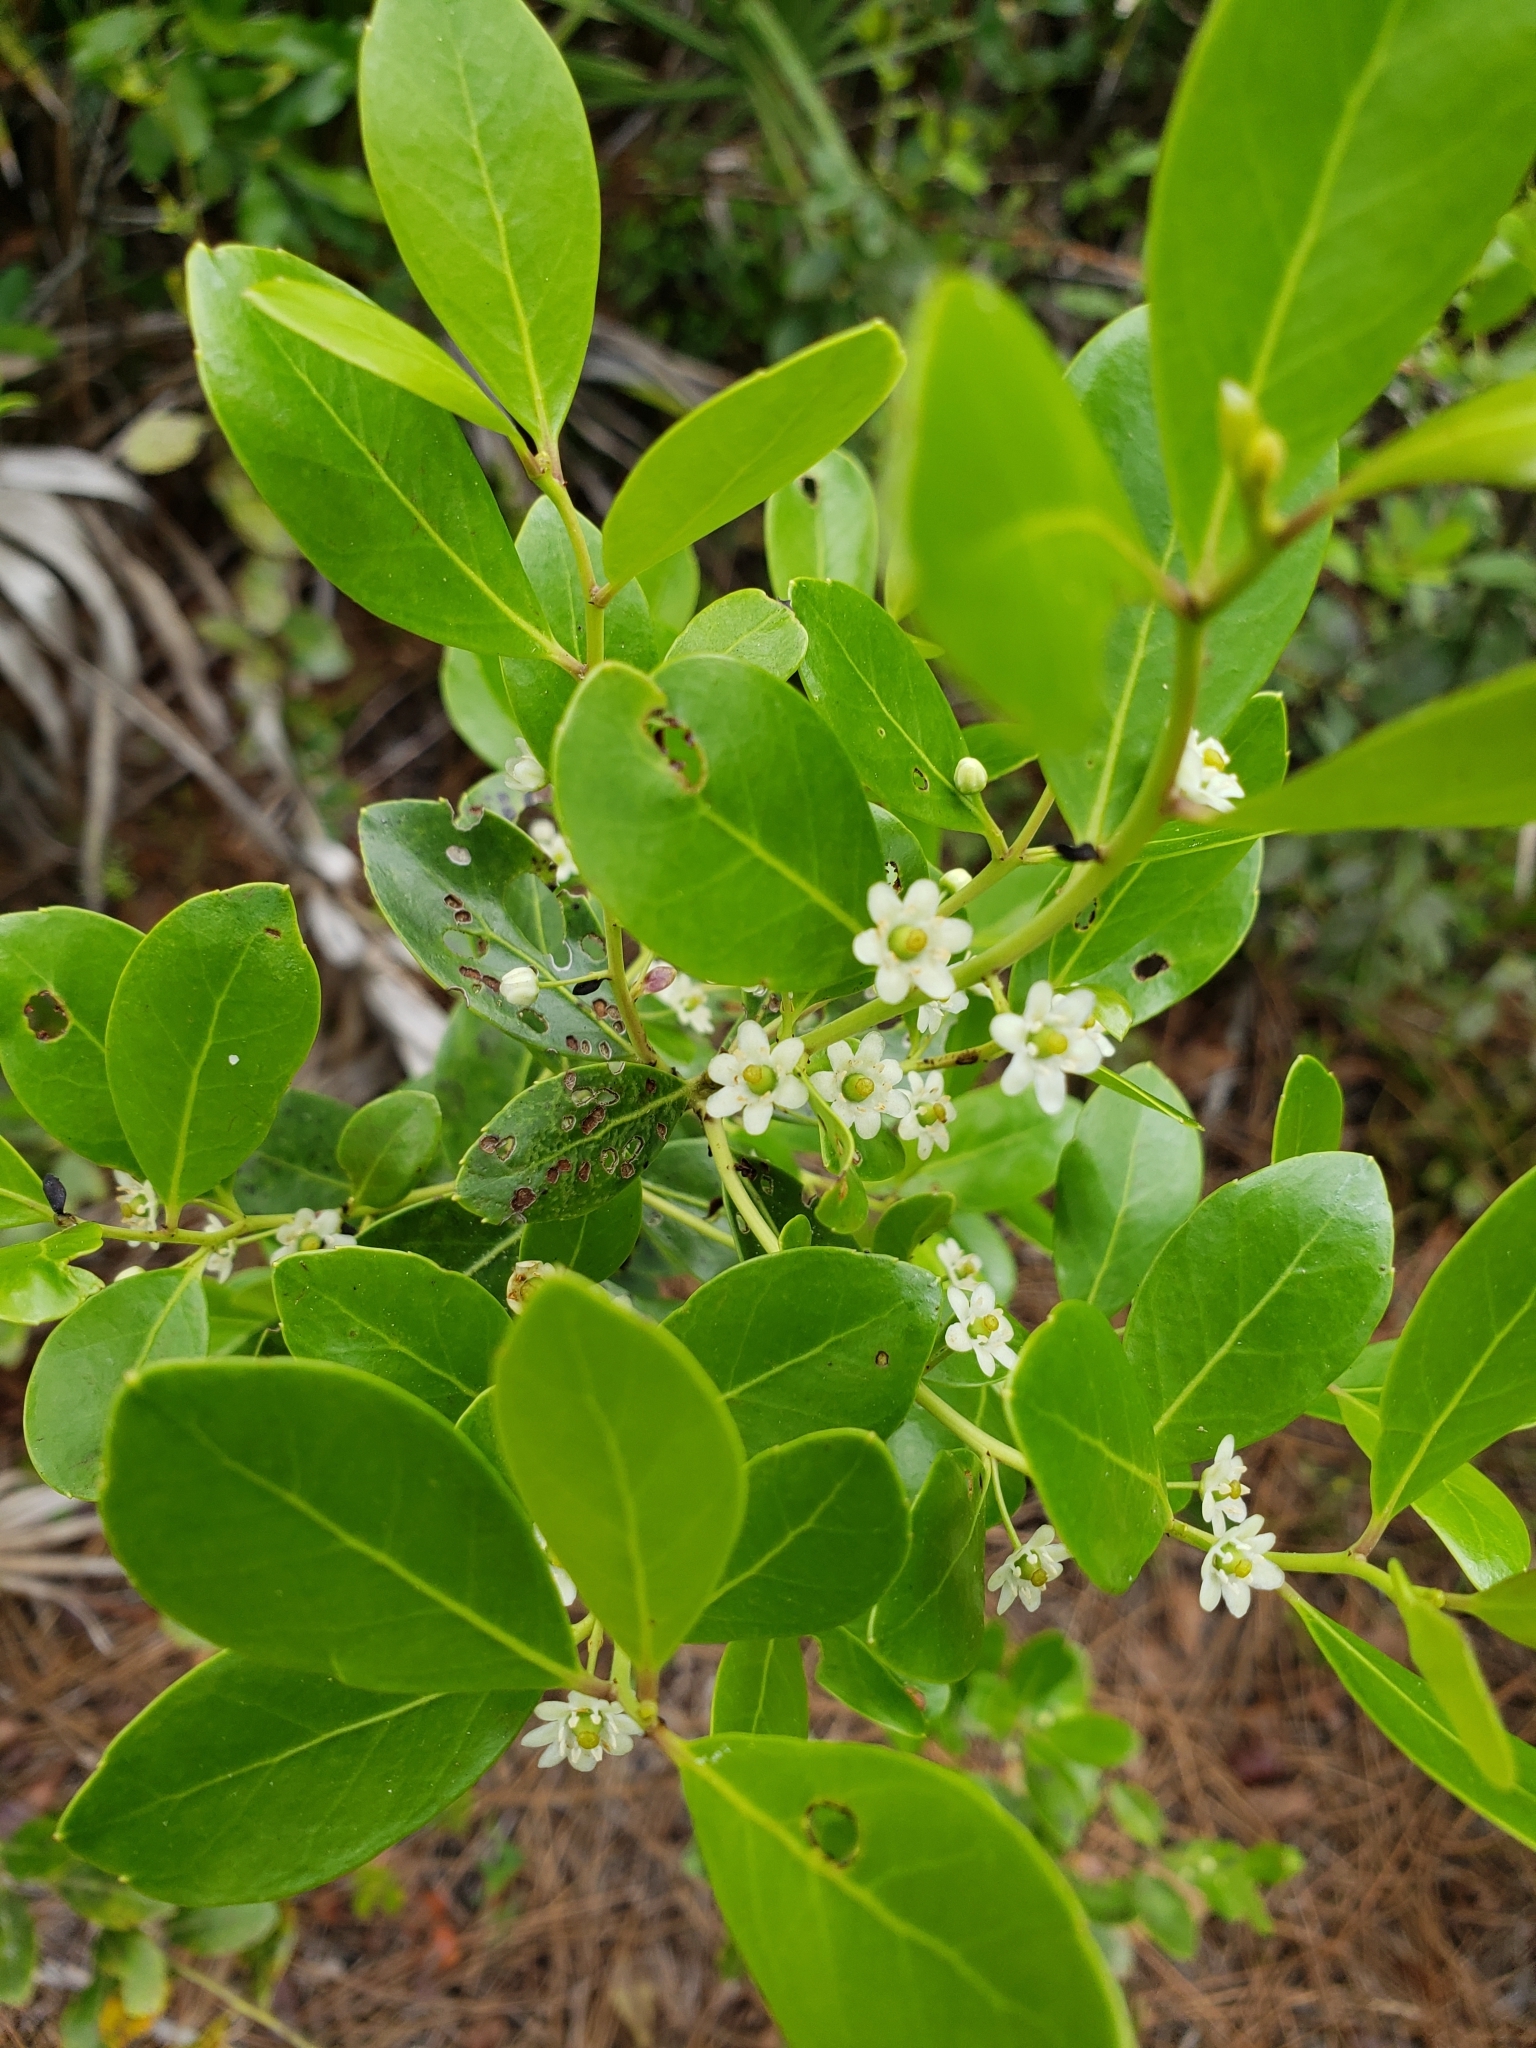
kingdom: Plantae
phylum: Tracheophyta
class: Magnoliopsida
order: Aquifoliales
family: Aquifoliaceae
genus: Ilex
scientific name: Ilex glabra
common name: Bitter gallberry
